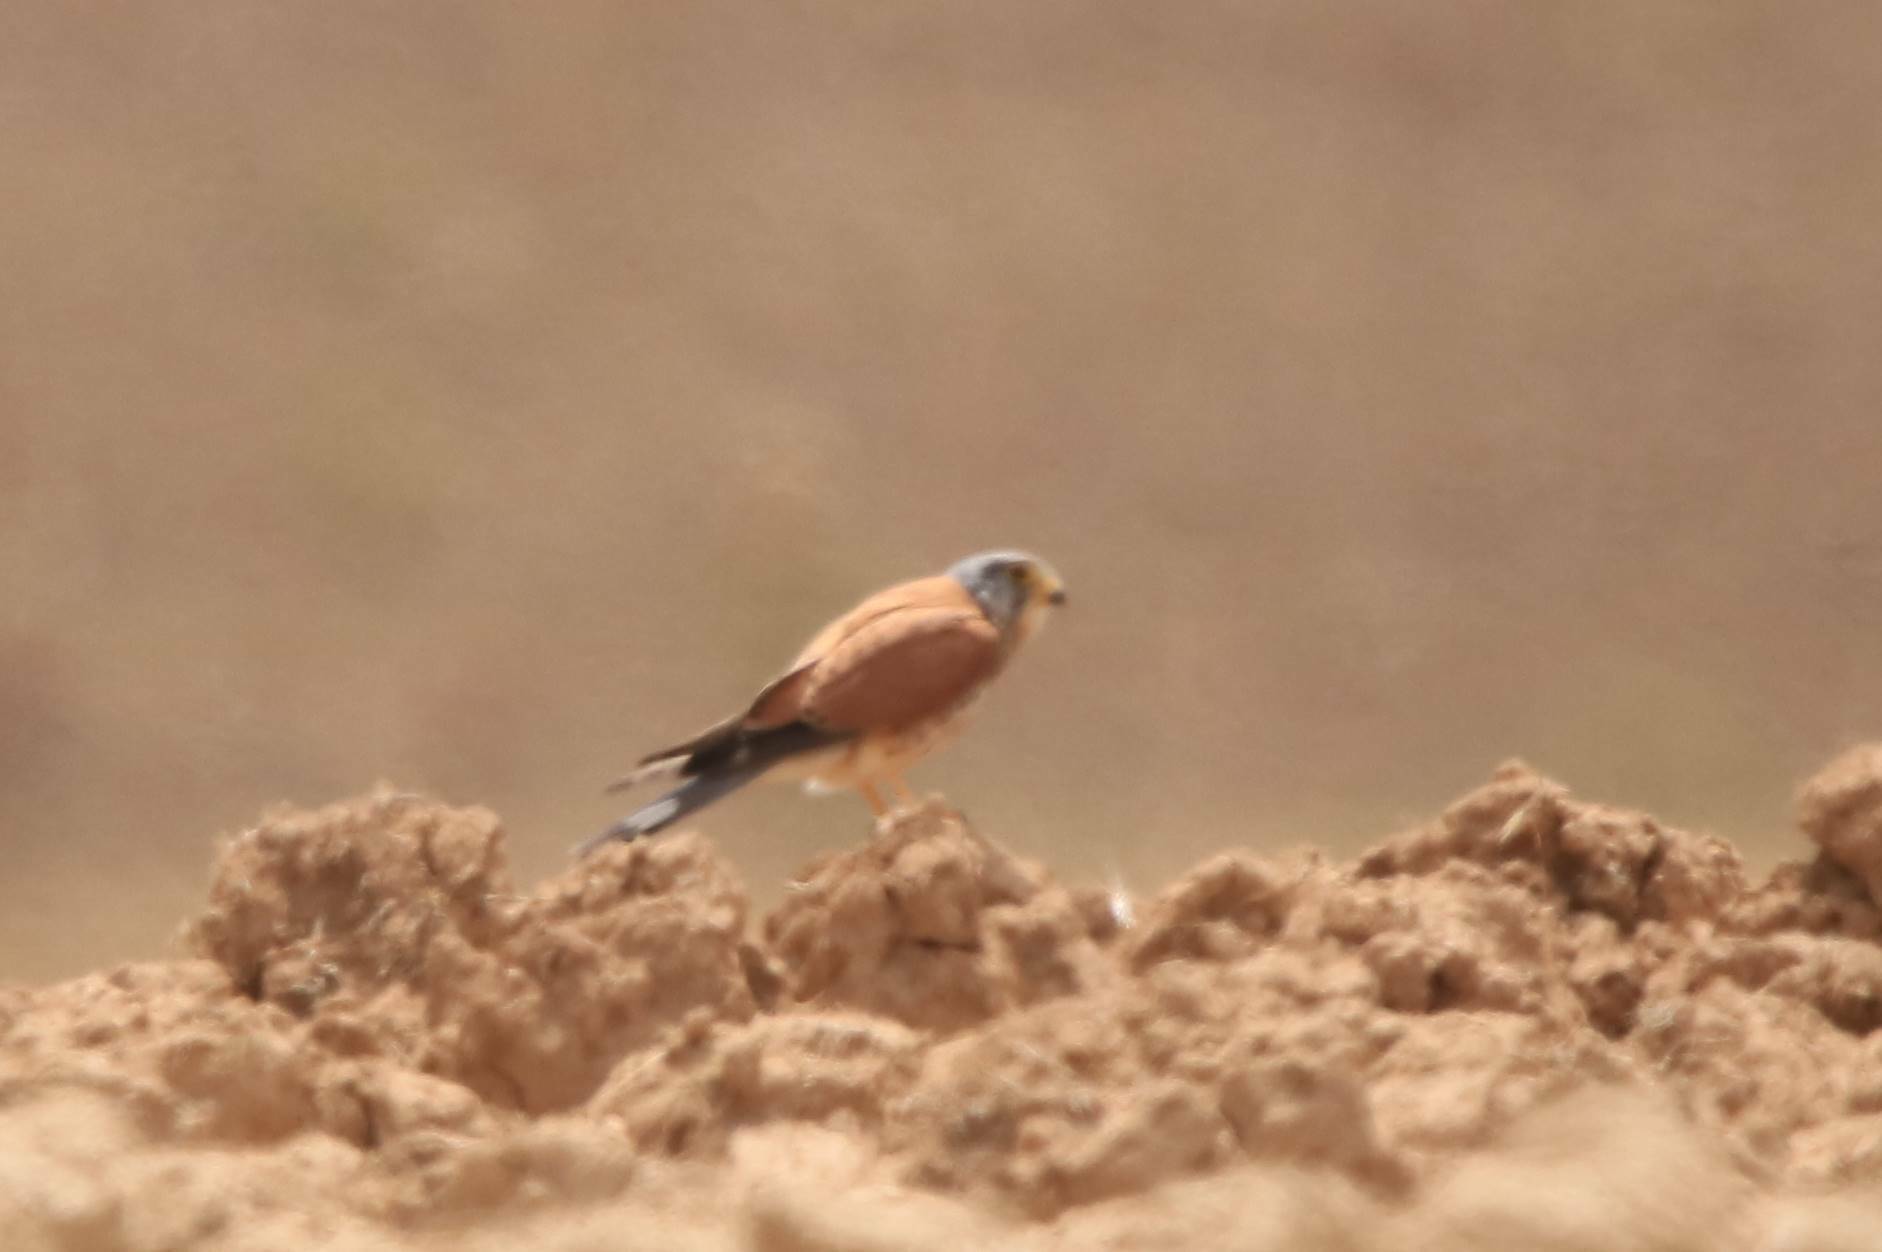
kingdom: Animalia
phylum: Chordata
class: Aves
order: Falconiformes
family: Falconidae
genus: Falco
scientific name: Falco naumanni
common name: Lesser kestrel
